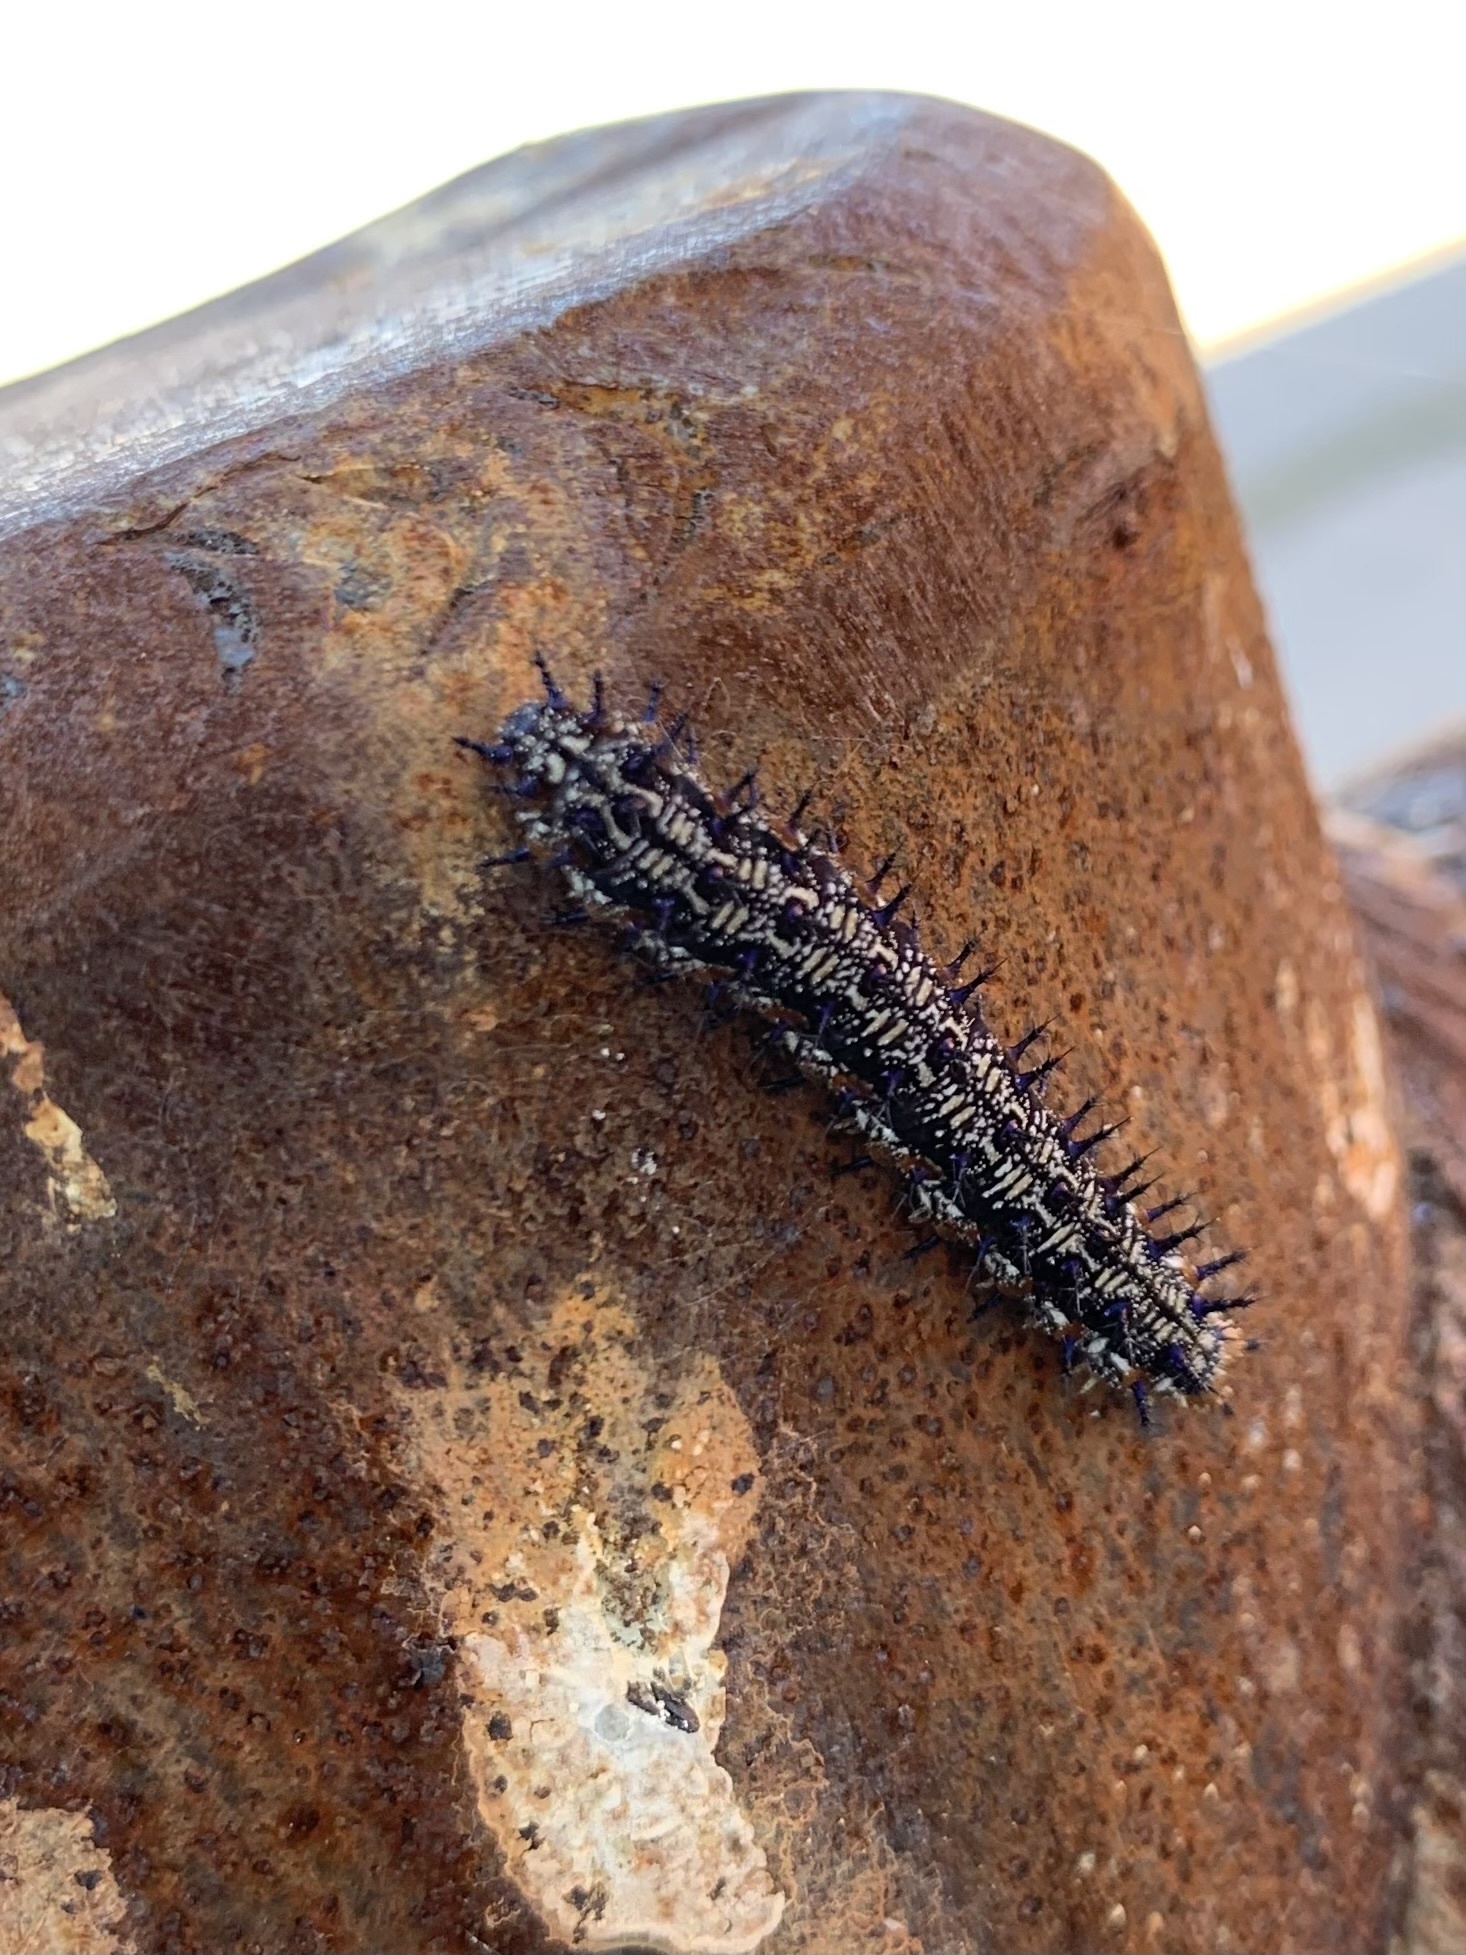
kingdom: Animalia
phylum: Arthropoda
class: Insecta
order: Lepidoptera
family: Nymphalidae
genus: Junonia
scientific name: Junonia coenia
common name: Common buckeye
